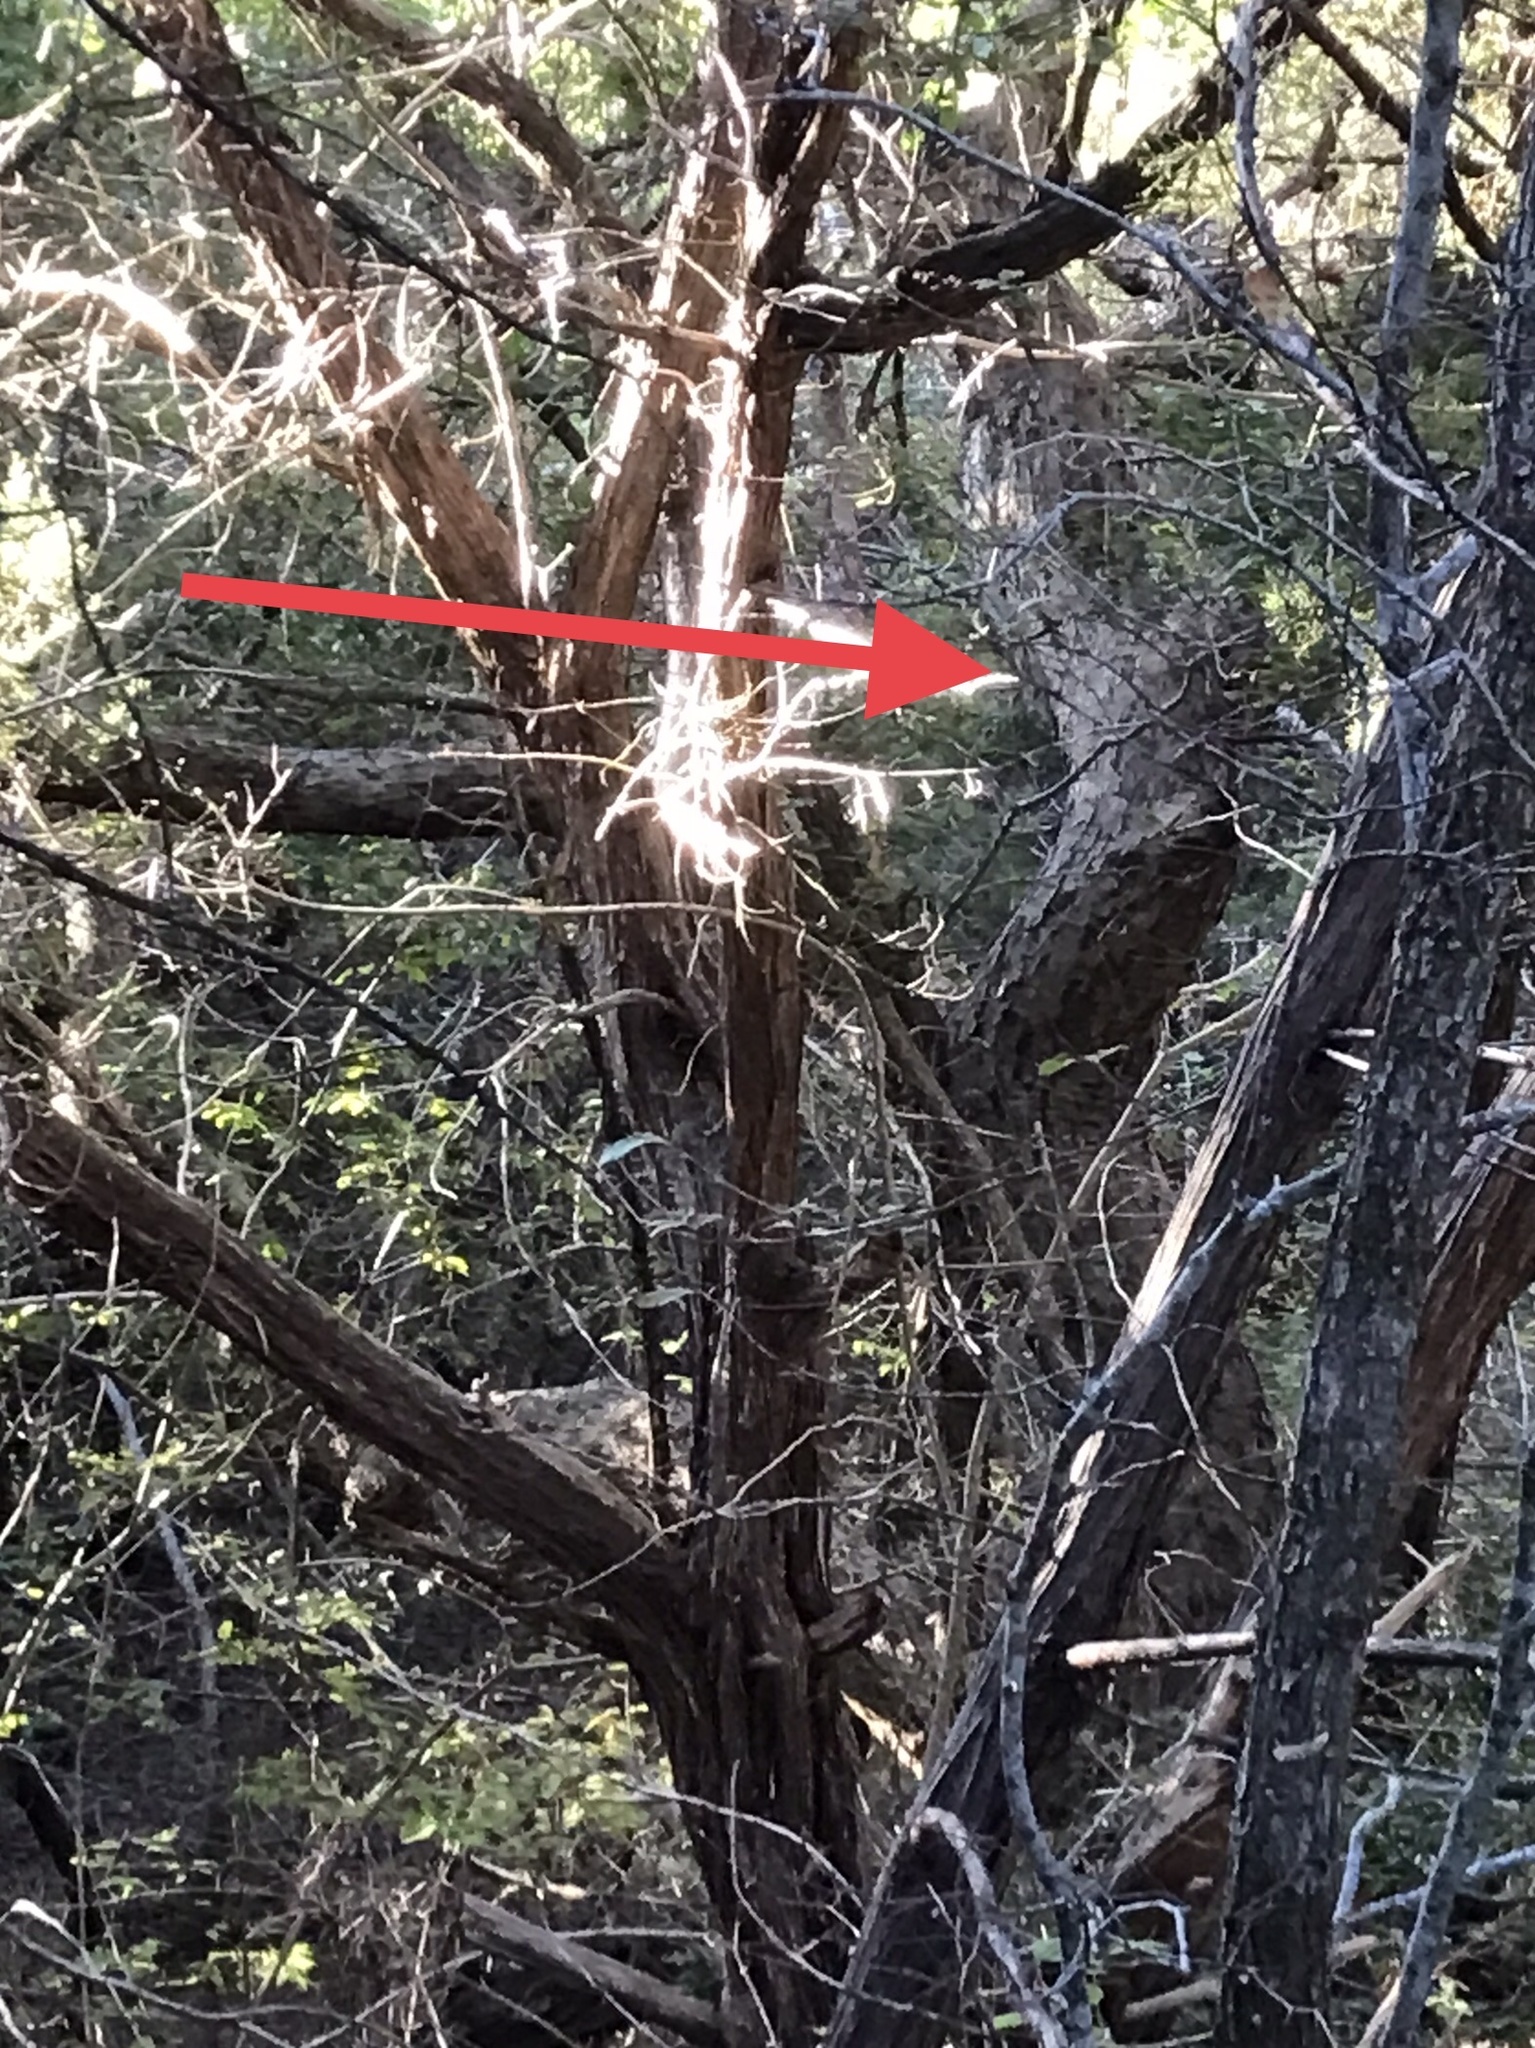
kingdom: Plantae
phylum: Tracheophyta
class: Magnoliopsida
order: Fagales
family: Fagaceae
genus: Quercus
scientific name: Quercus sinuata
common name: Durand oak
